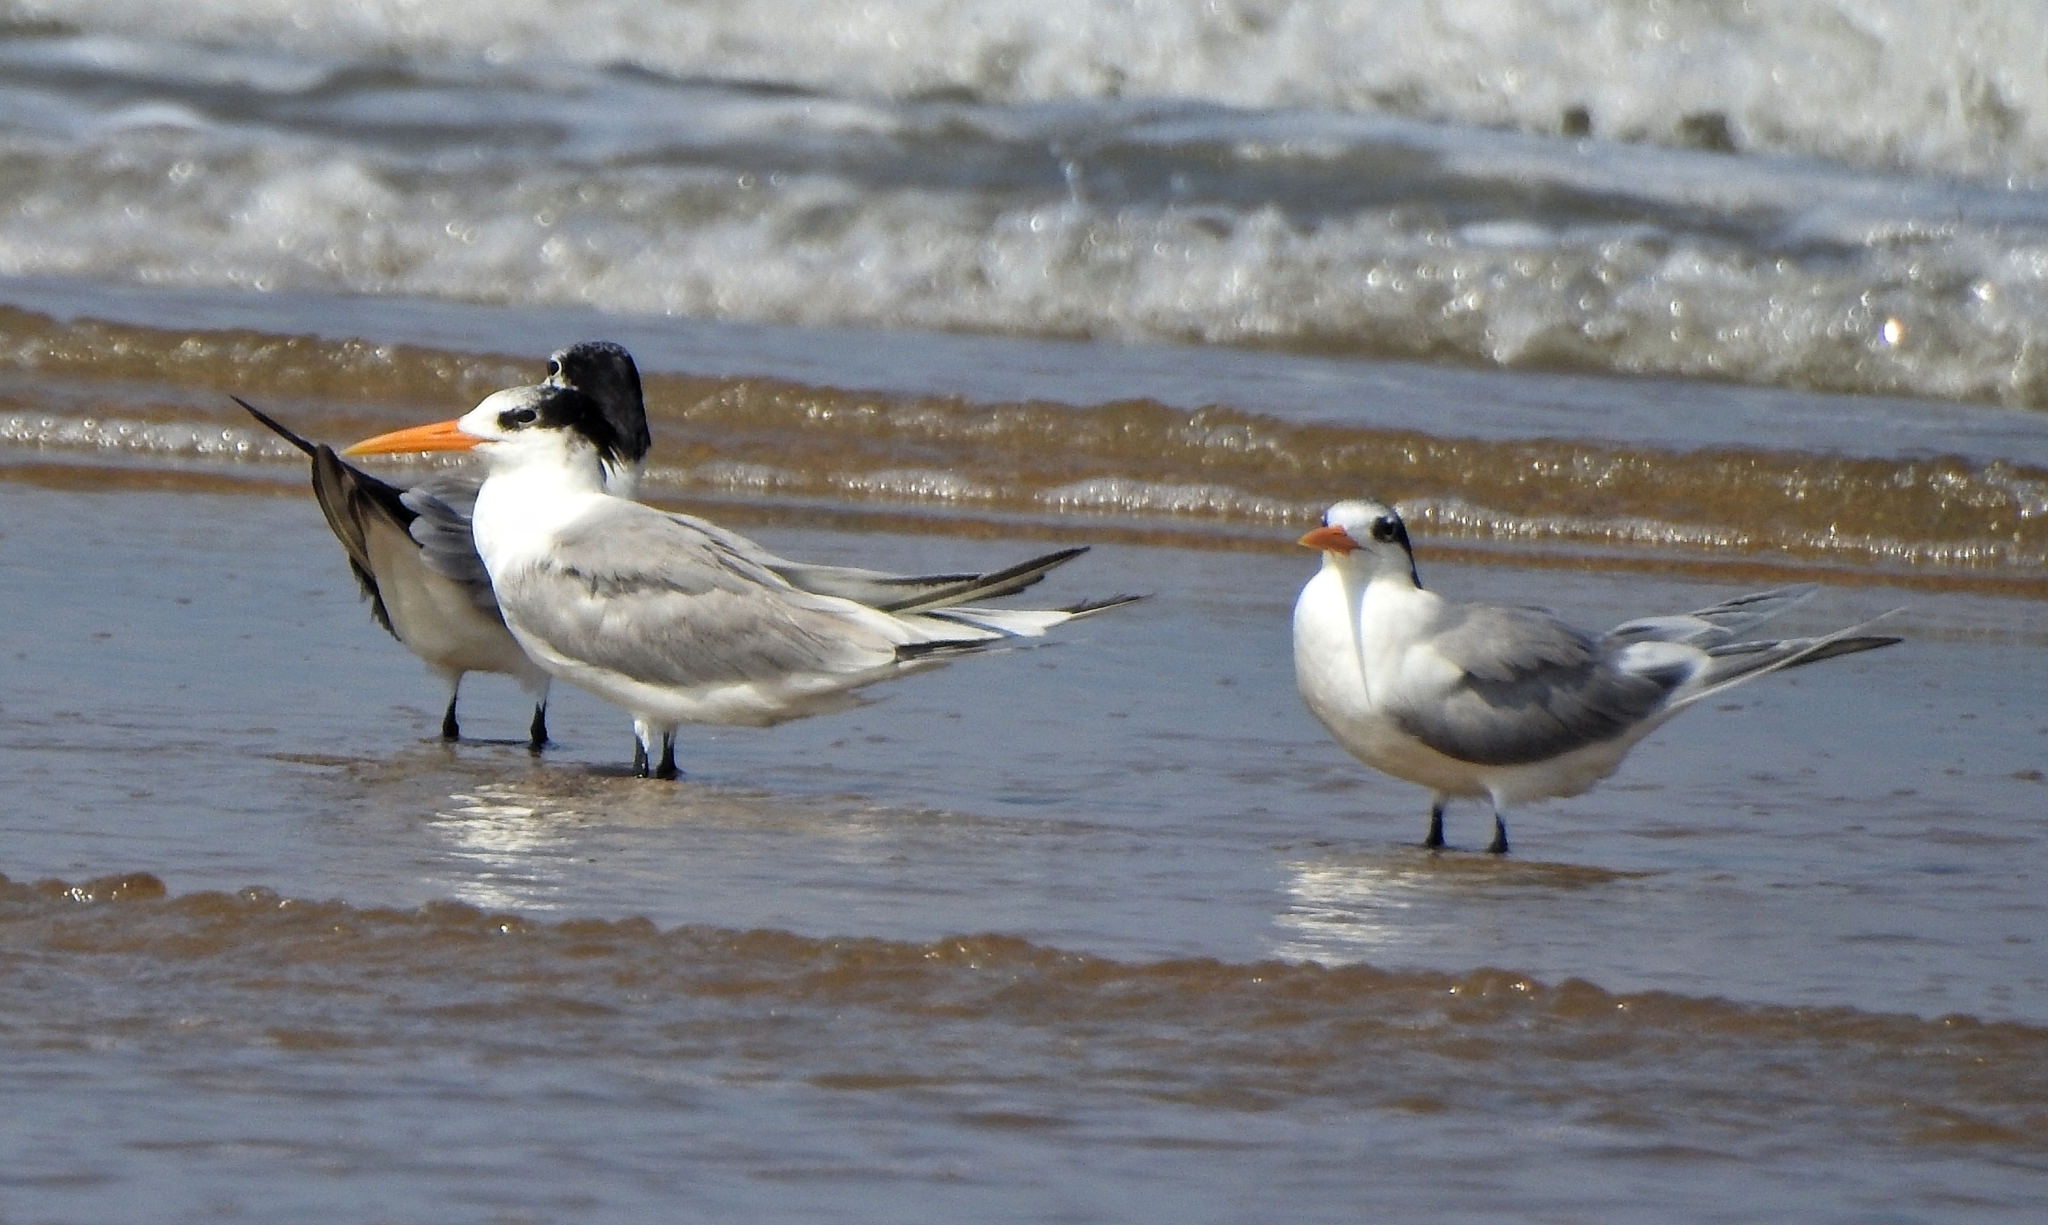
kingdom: Animalia
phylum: Chordata
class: Aves
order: Charadriiformes
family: Laridae
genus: Thalasseus
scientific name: Thalasseus bengalensis
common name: Lesser crested tern
